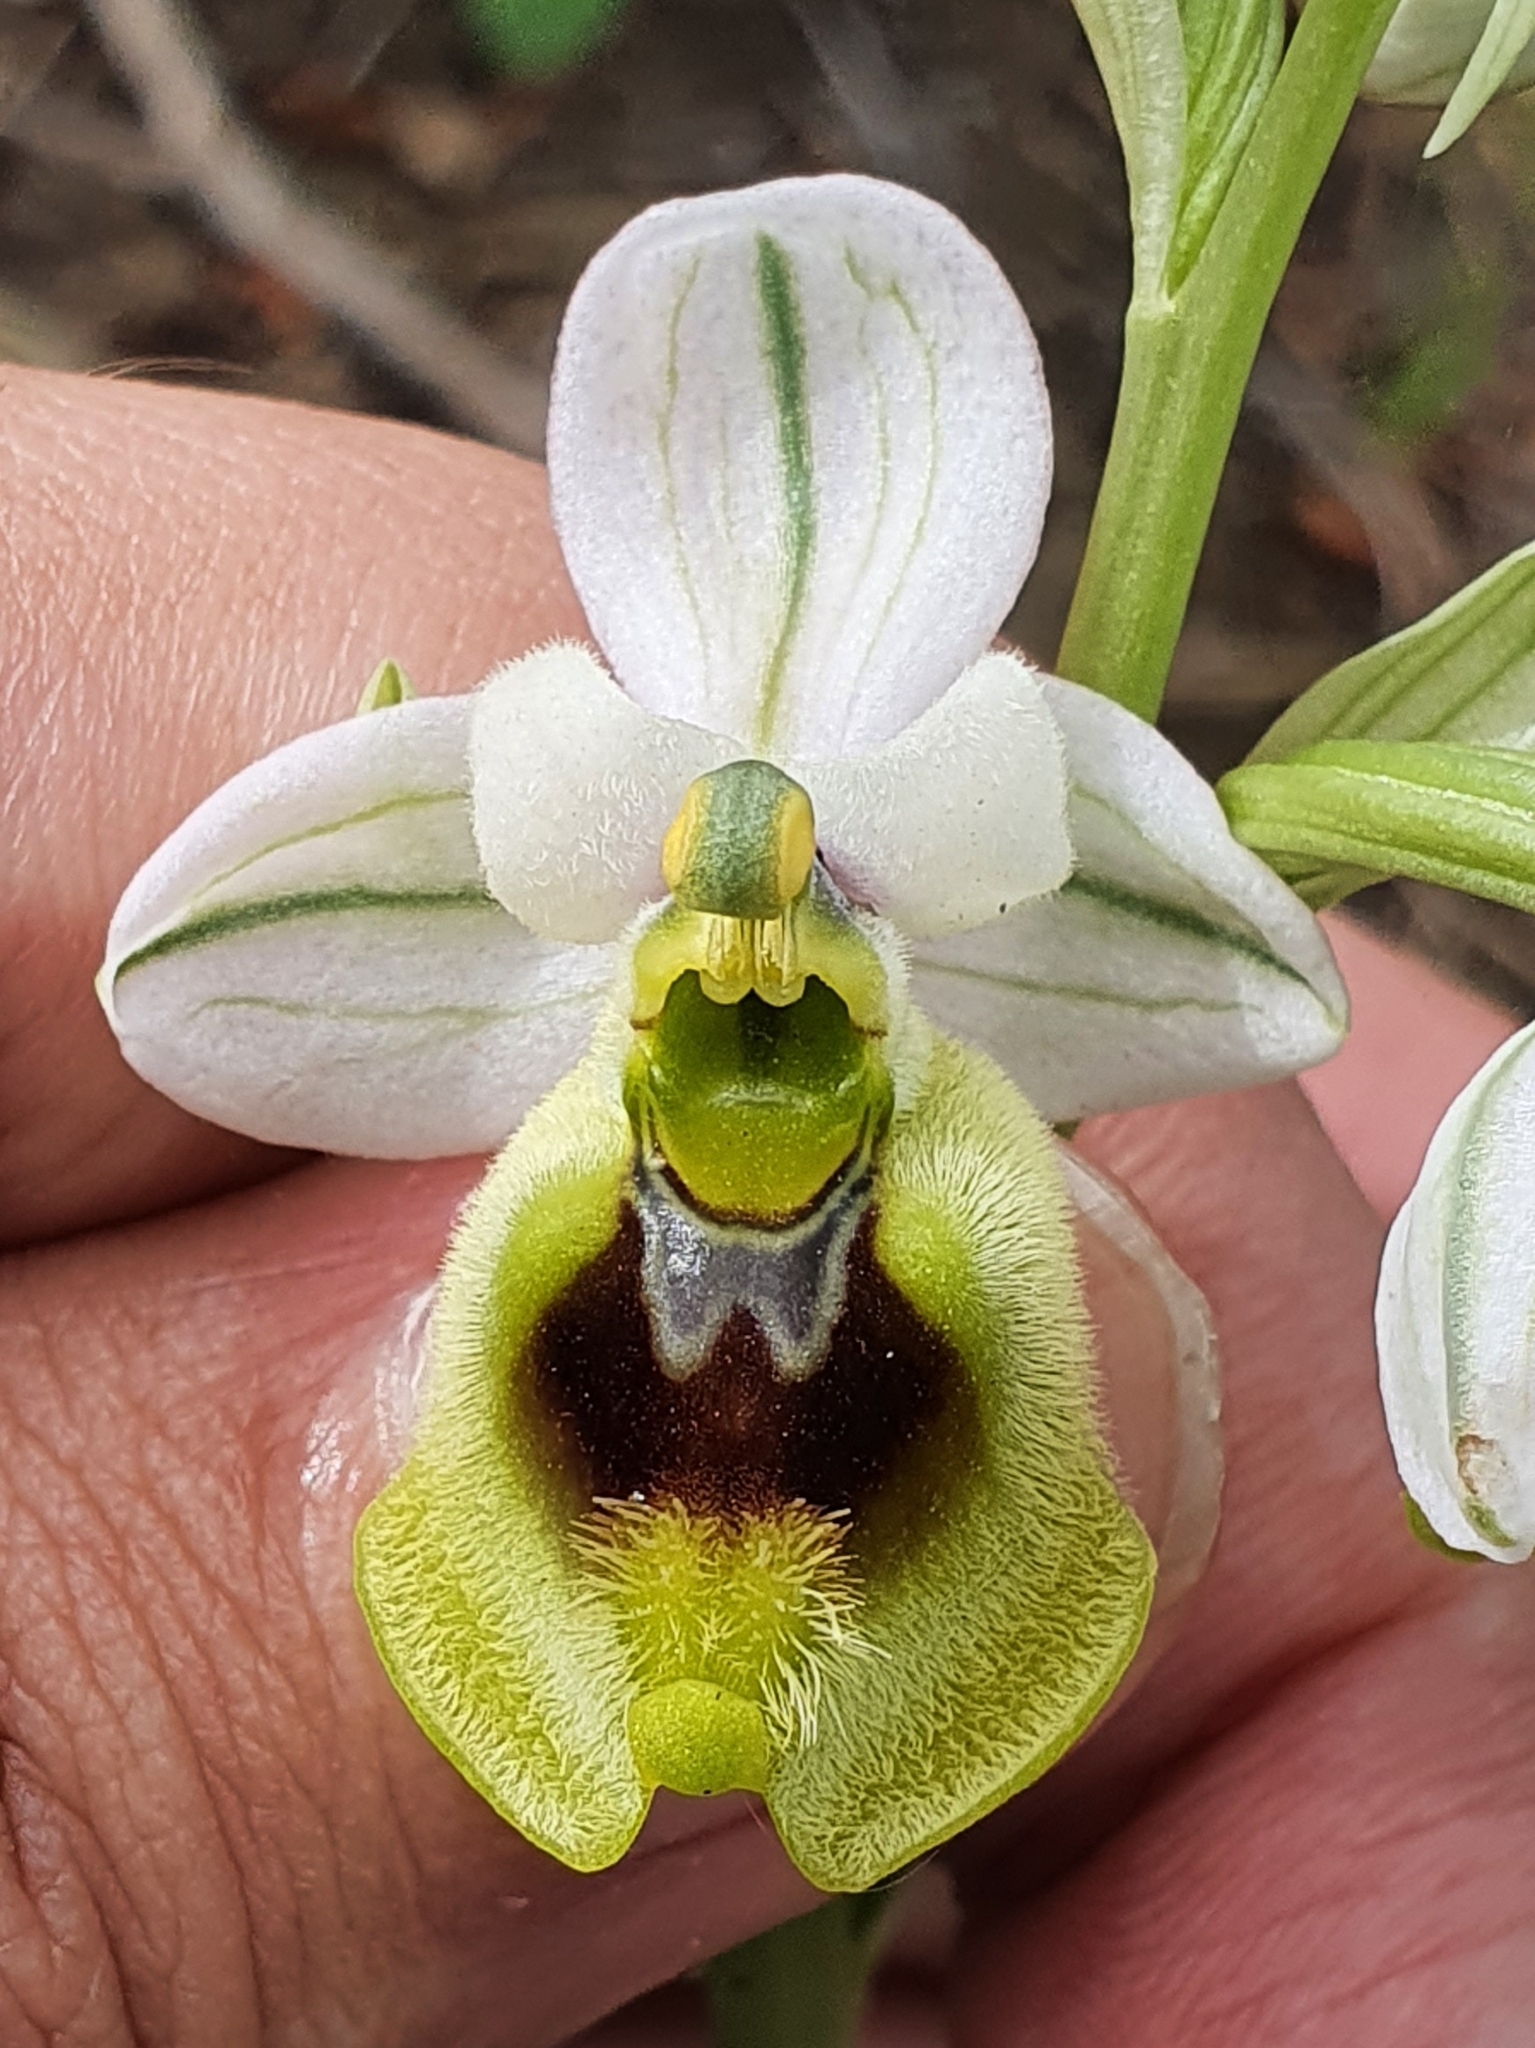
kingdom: Plantae
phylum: Tracheophyta
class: Liliopsida
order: Asparagales
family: Orchidaceae
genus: Ophrys
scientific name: Ophrys tenthredinifera
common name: Sawfly orchid
